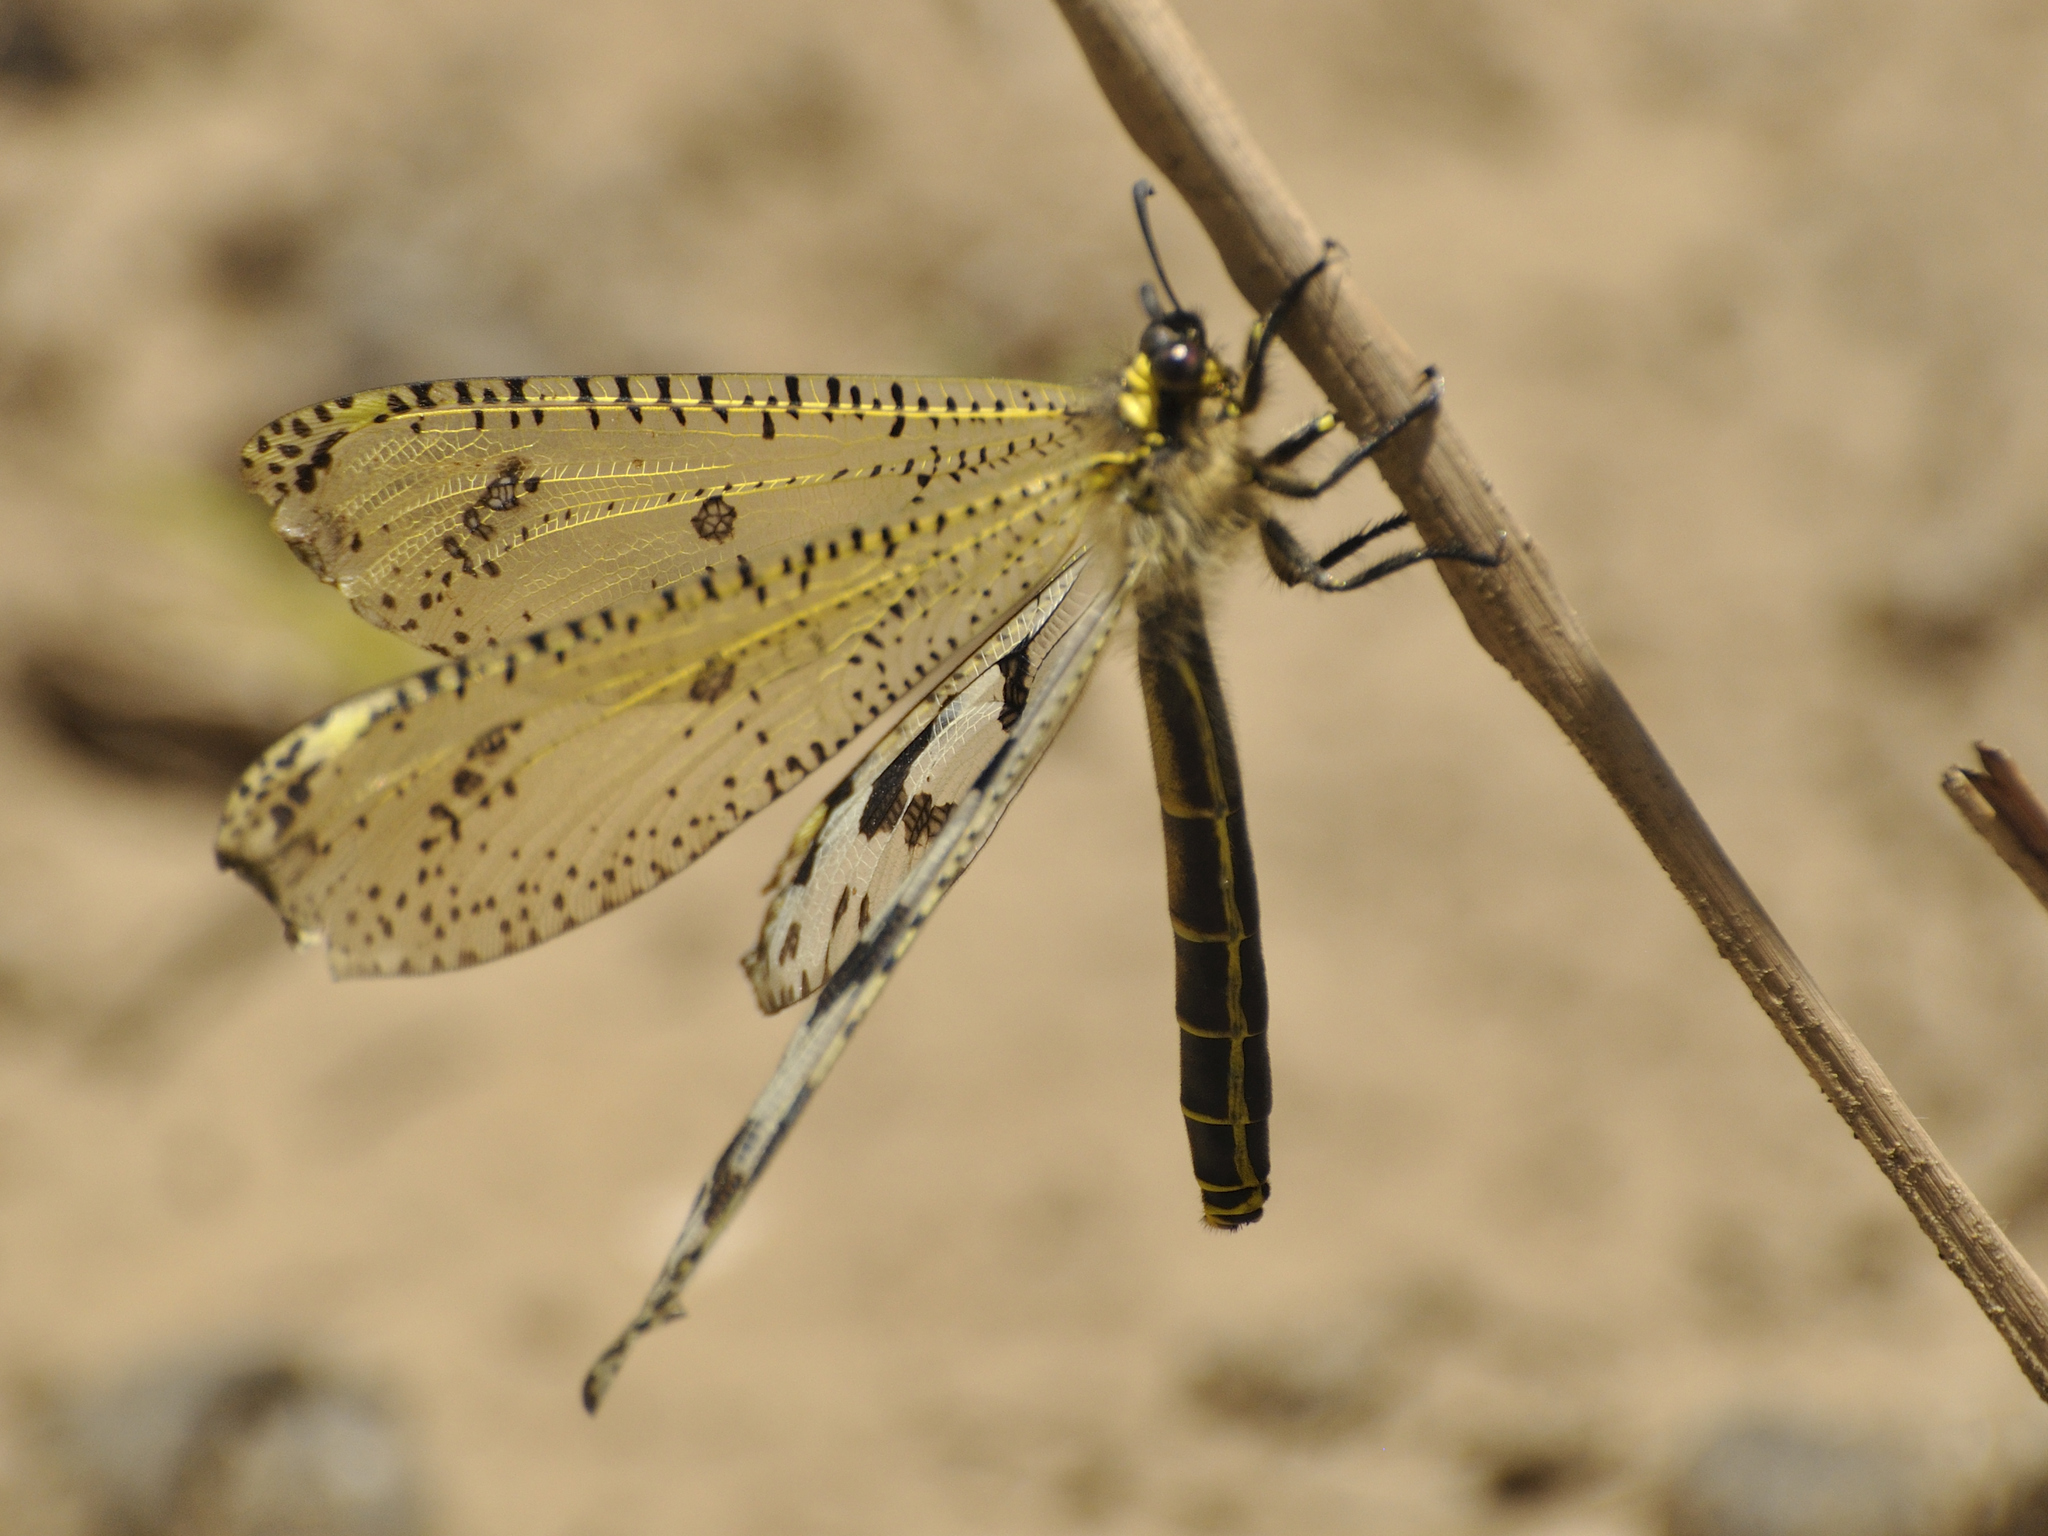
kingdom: Animalia
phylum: Arthropoda
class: Insecta
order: Neuroptera
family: Myrmeleontidae
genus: Palpares
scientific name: Palpares caffer
